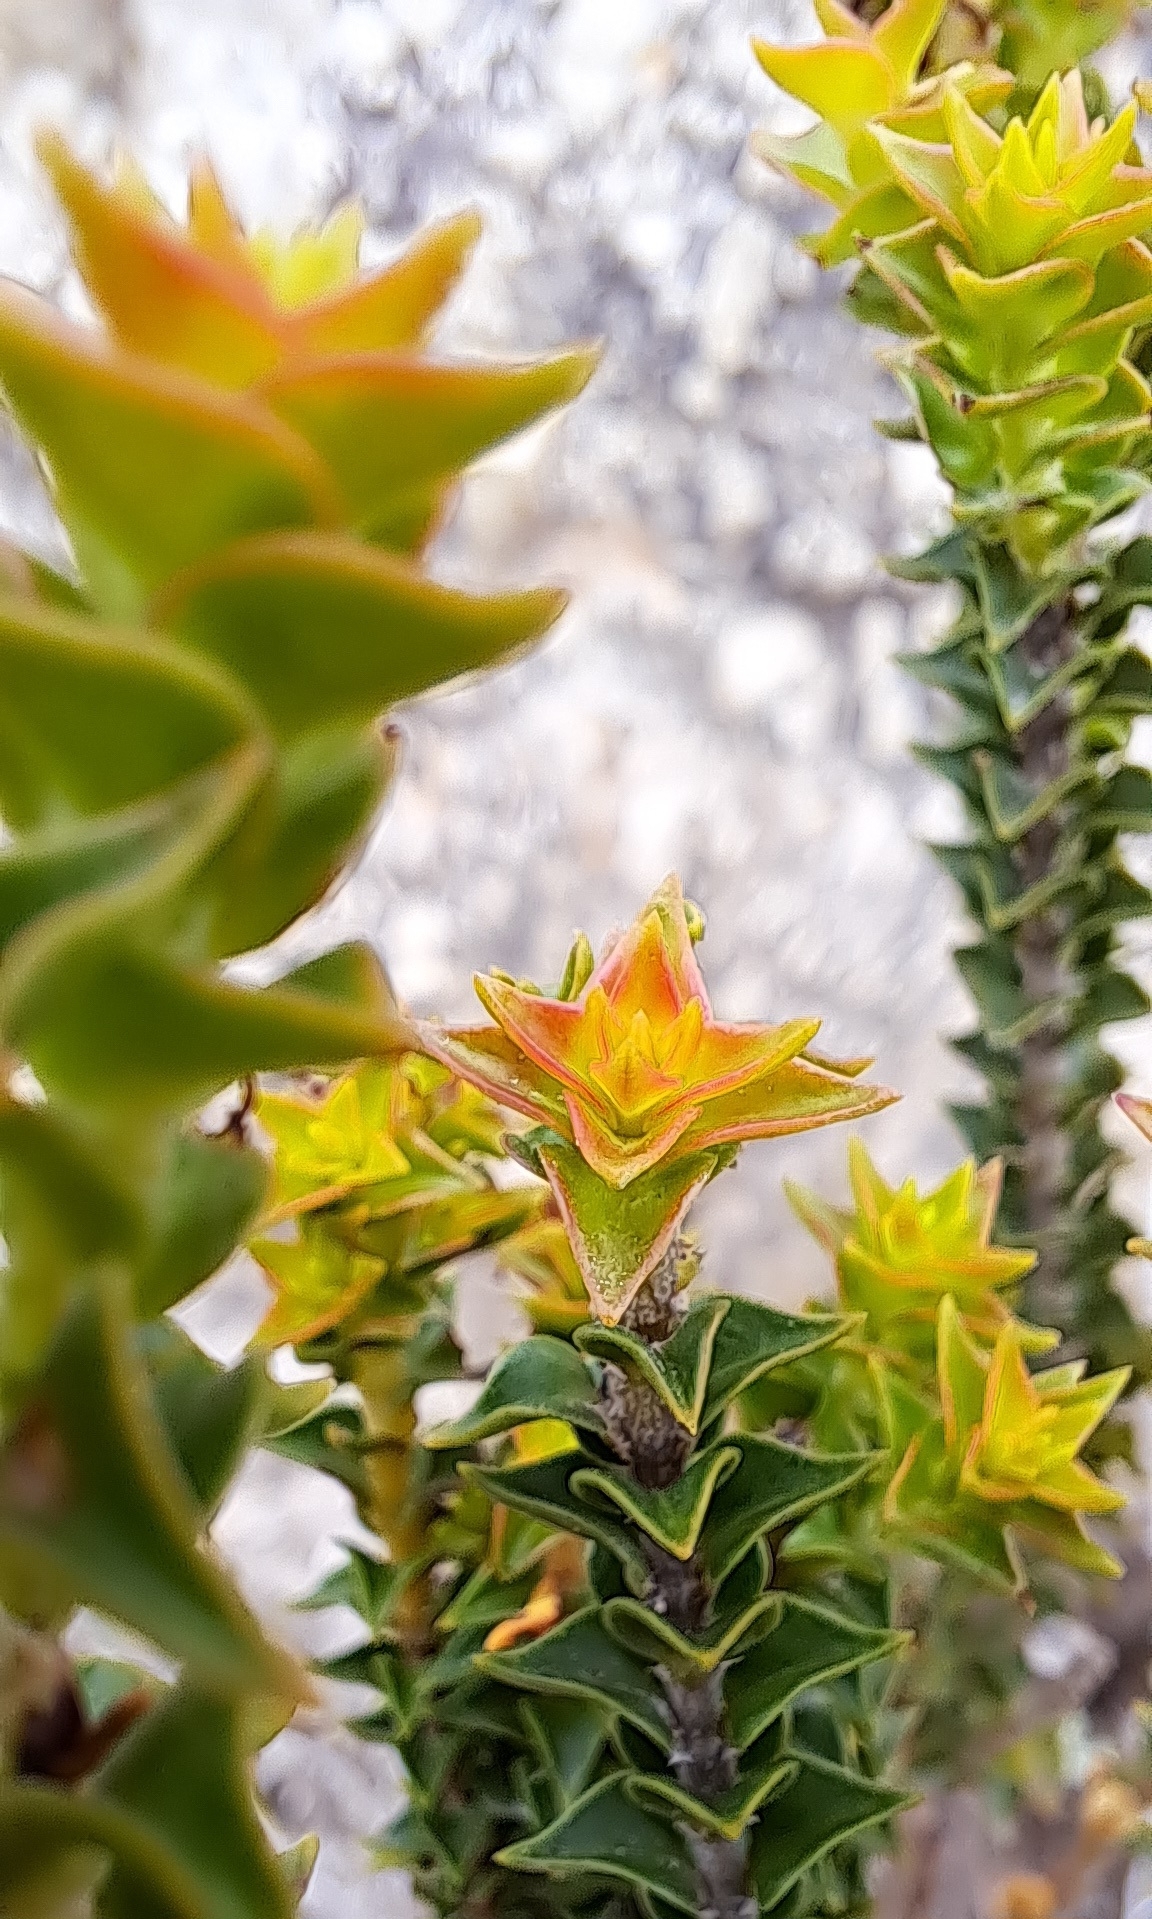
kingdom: Plantae
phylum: Tracheophyta
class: Magnoliopsida
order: Myrtales
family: Penaeaceae
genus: Penaea
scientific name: Penaea mucronata
